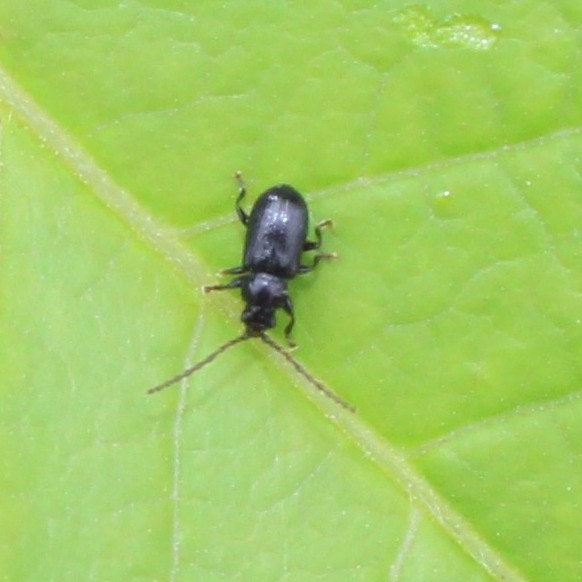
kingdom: Animalia
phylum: Arthropoda
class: Insecta
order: Coleoptera
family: Chrysomelidae
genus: Aulacothorax
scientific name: Aulacothorax
